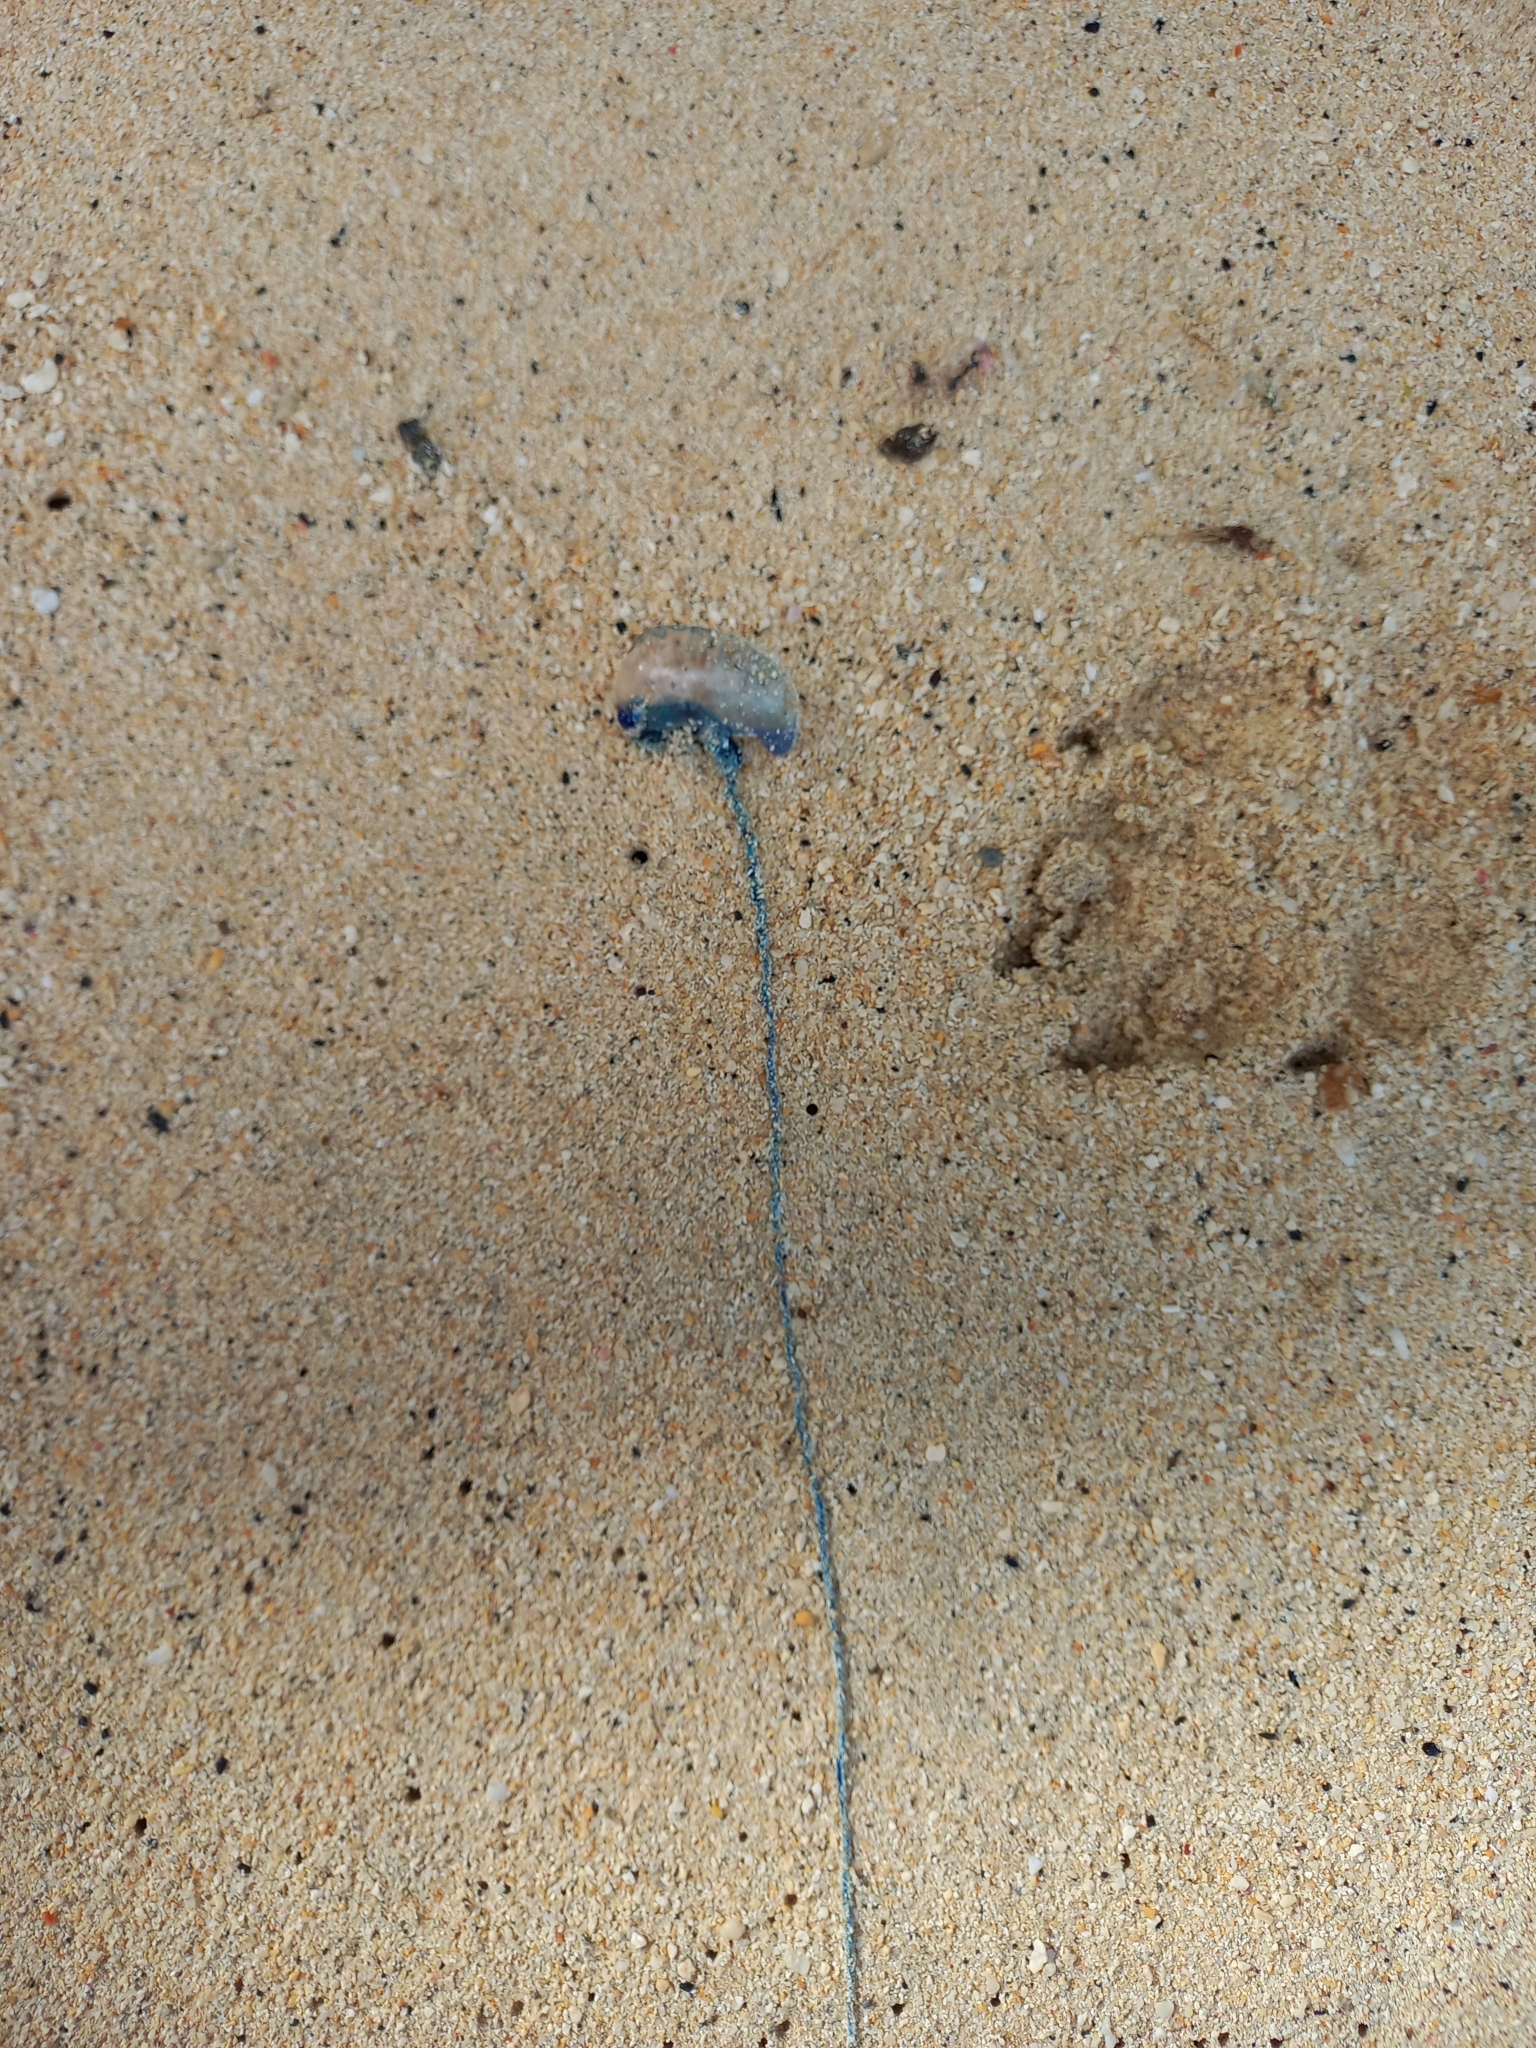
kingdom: Animalia
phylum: Cnidaria
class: Hydrozoa
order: Siphonophorae
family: Physaliidae
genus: Physalia
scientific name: Physalia physalis
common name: Portuguese man-of-war
